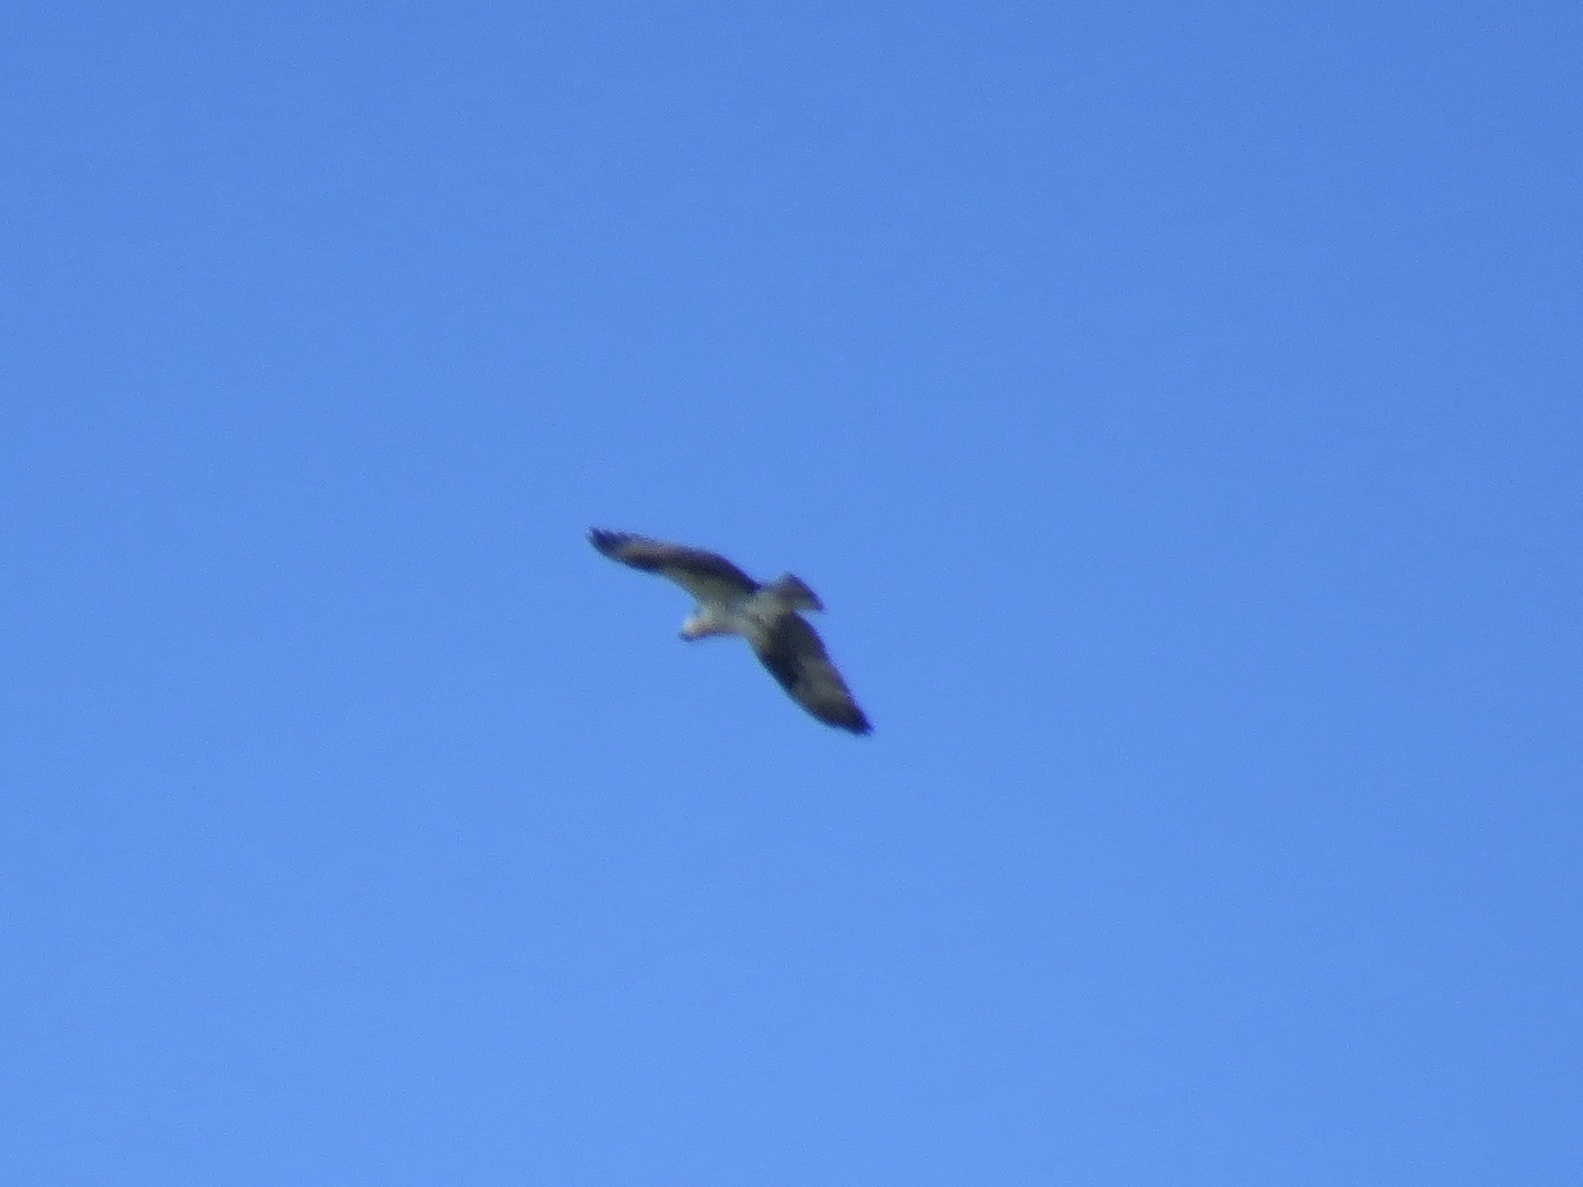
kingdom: Animalia
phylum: Chordata
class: Aves
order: Accipitriformes
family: Pandionidae
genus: Pandion
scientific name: Pandion haliaetus
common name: Osprey
